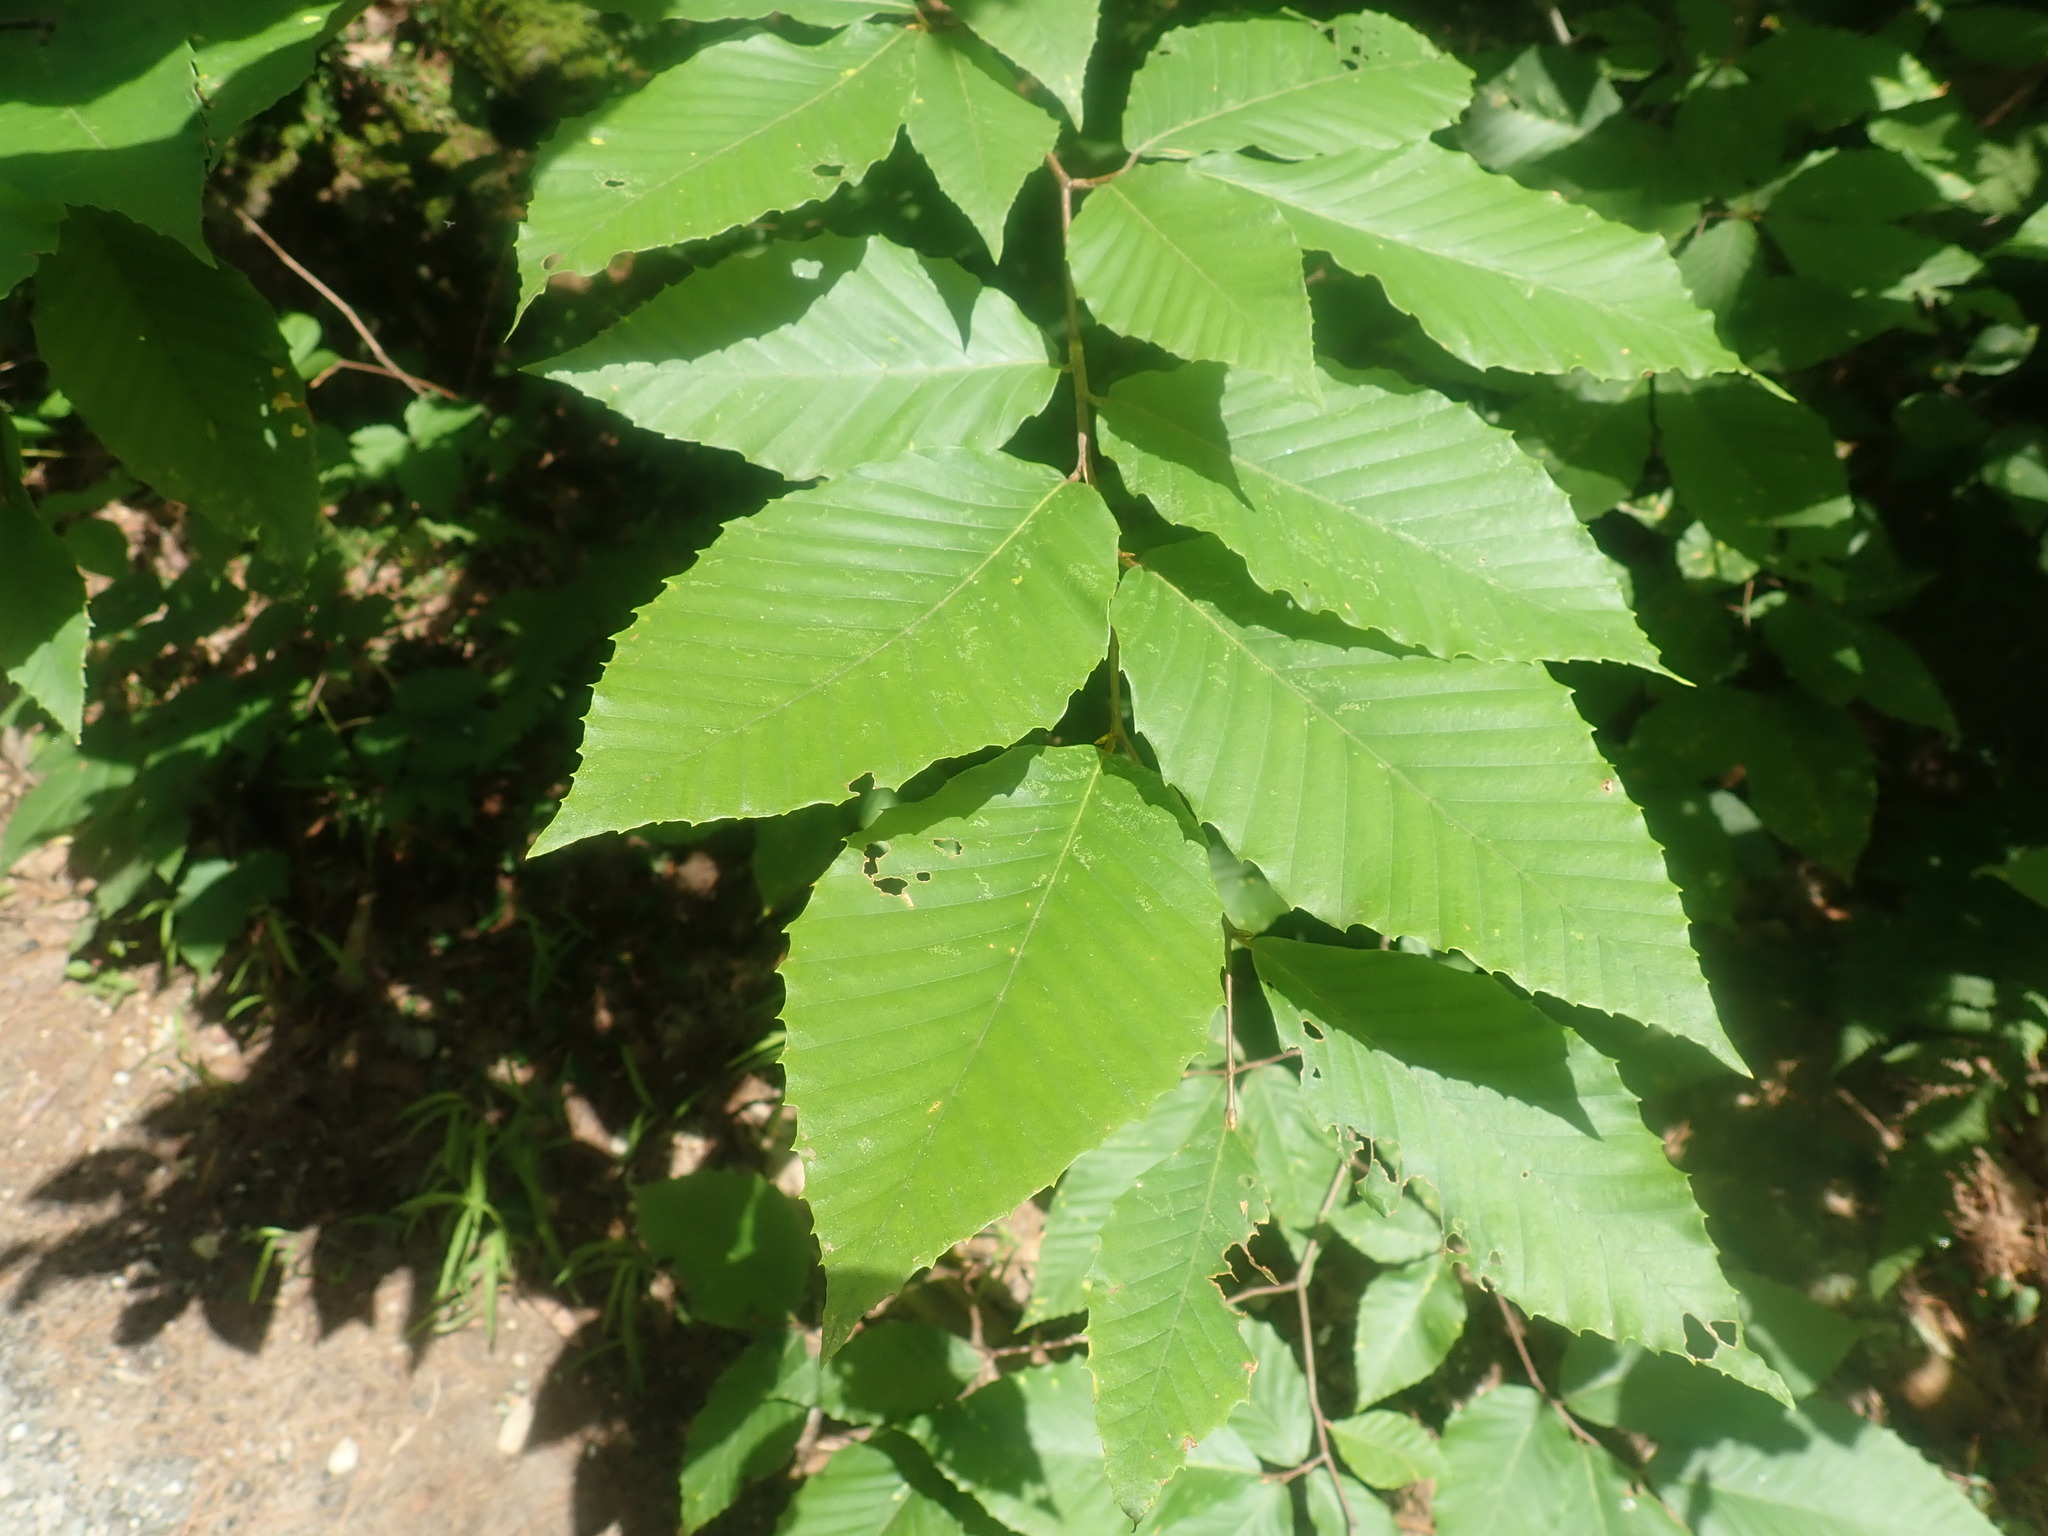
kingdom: Plantae
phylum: Tracheophyta
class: Magnoliopsida
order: Fagales
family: Fagaceae
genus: Fagus
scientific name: Fagus grandifolia
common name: American beech
